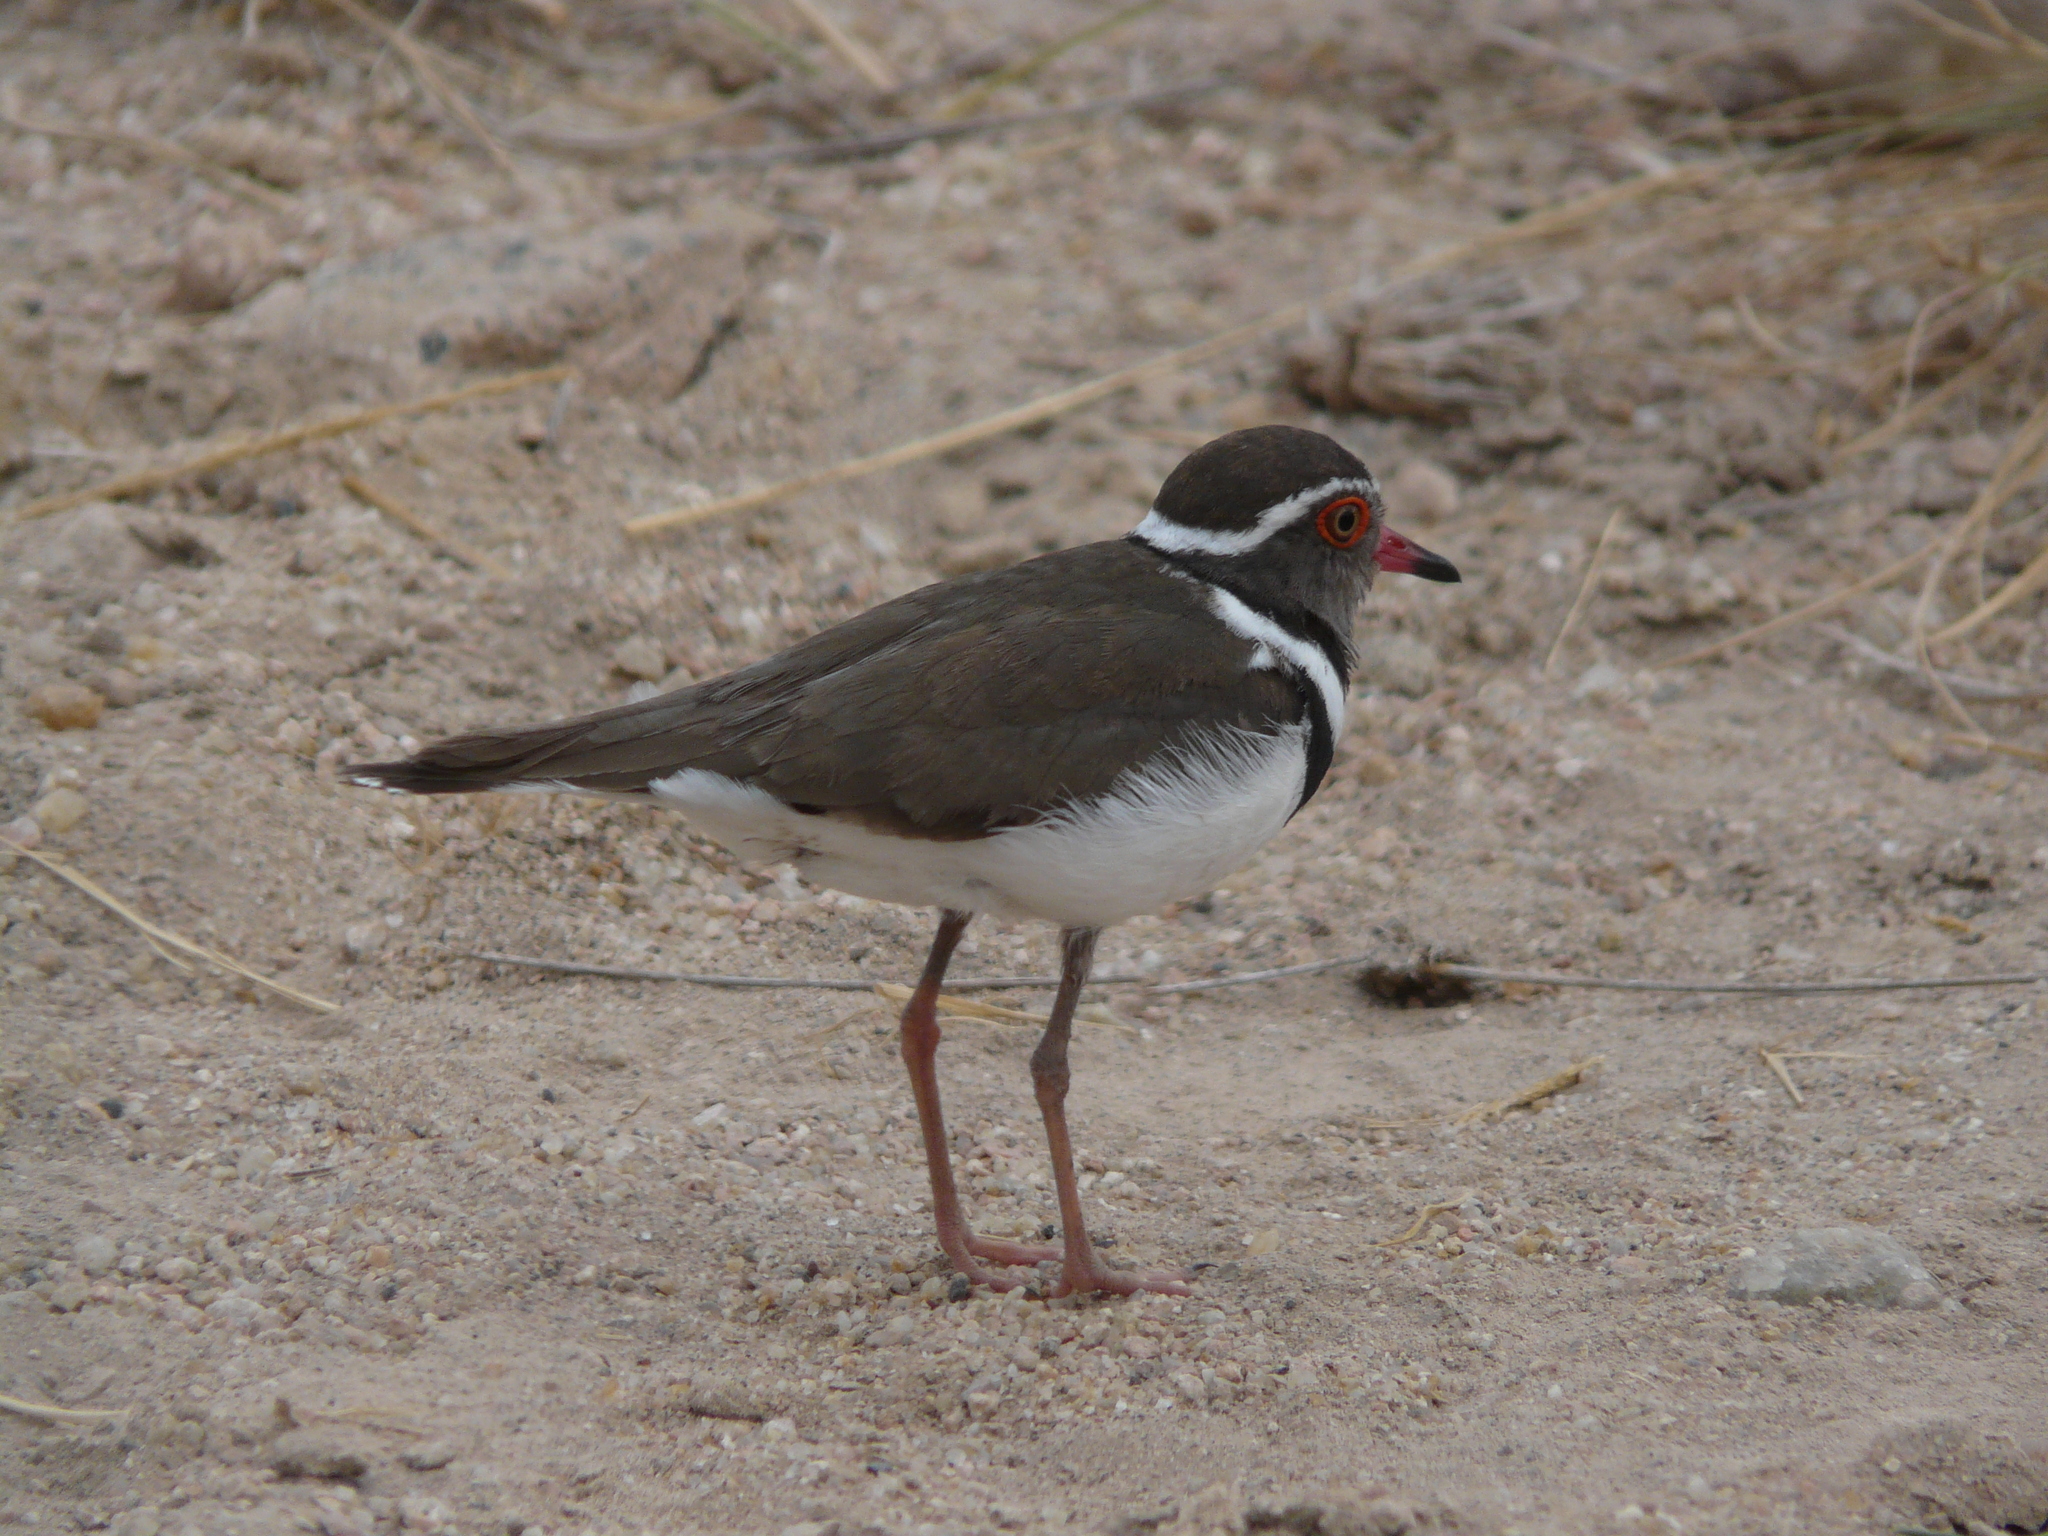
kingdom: Animalia
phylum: Chordata
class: Aves
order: Charadriiformes
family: Charadriidae
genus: Charadrius
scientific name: Charadrius tricollaris
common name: Three-banded plover
